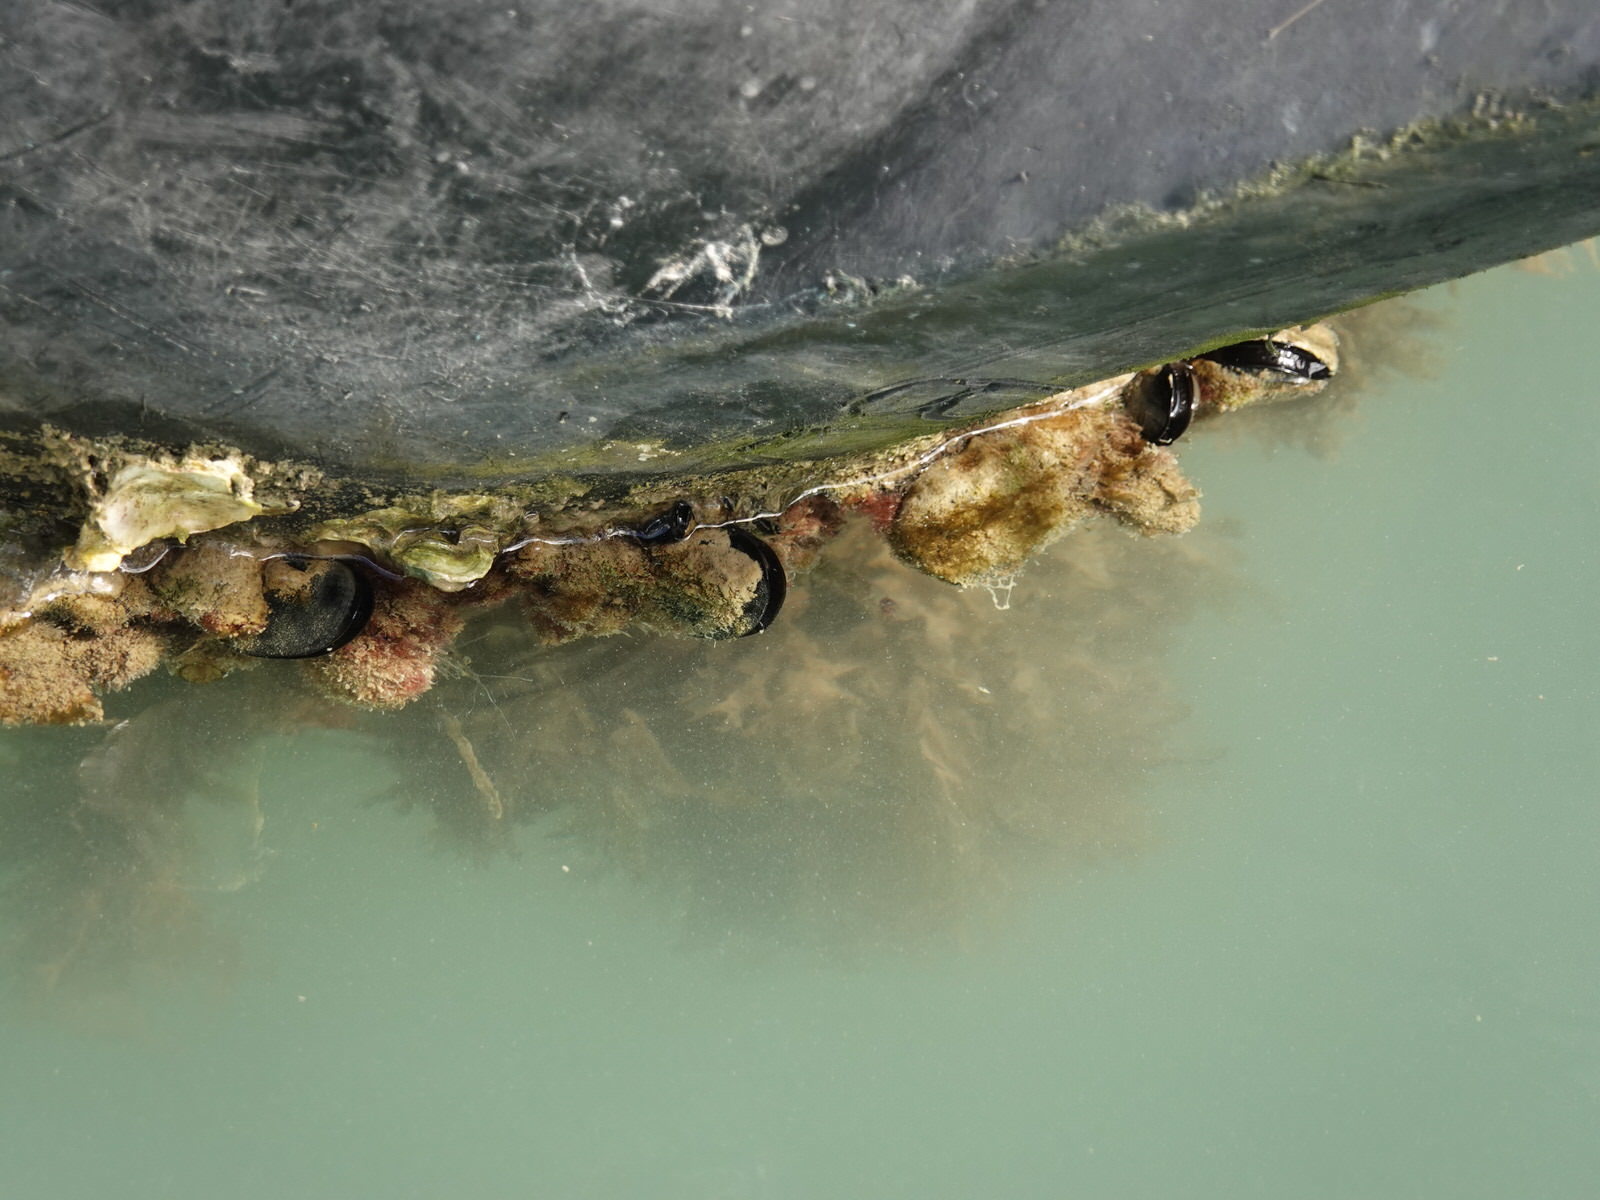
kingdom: Animalia
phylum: Arthropoda
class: Malacostraca
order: Decapoda
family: Palaemonidae
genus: Palaemon
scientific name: Palaemon affinis
